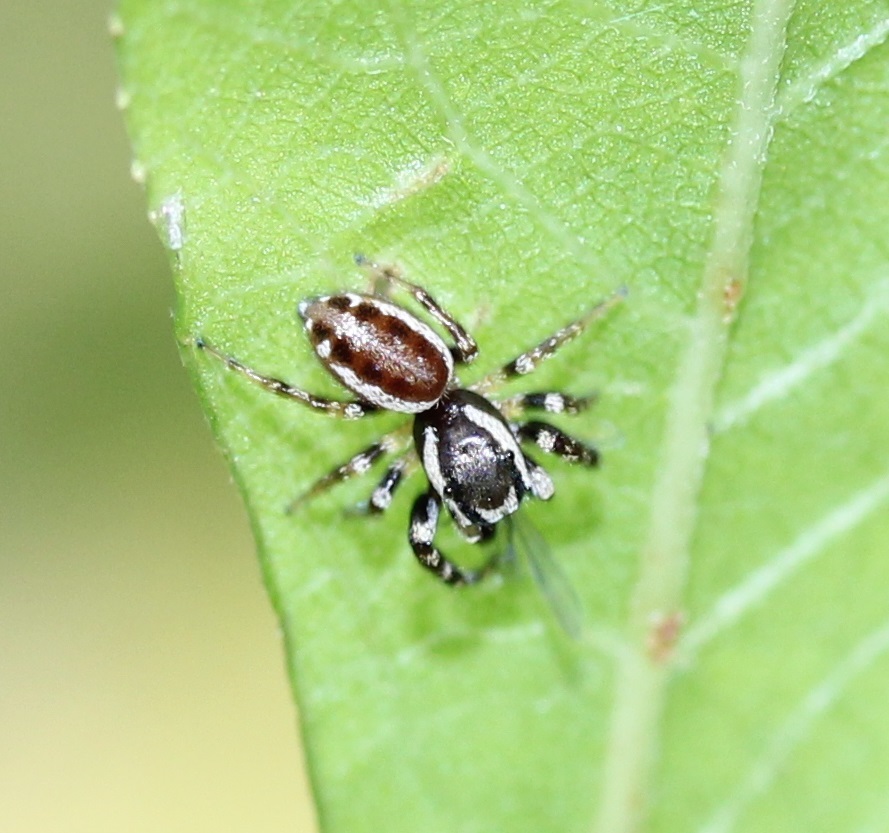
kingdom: Animalia
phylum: Arthropoda
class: Arachnida
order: Araneae
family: Salticidae
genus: Pelegrina
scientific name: Pelegrina proterva
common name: Common white-cheeked jumping spider
